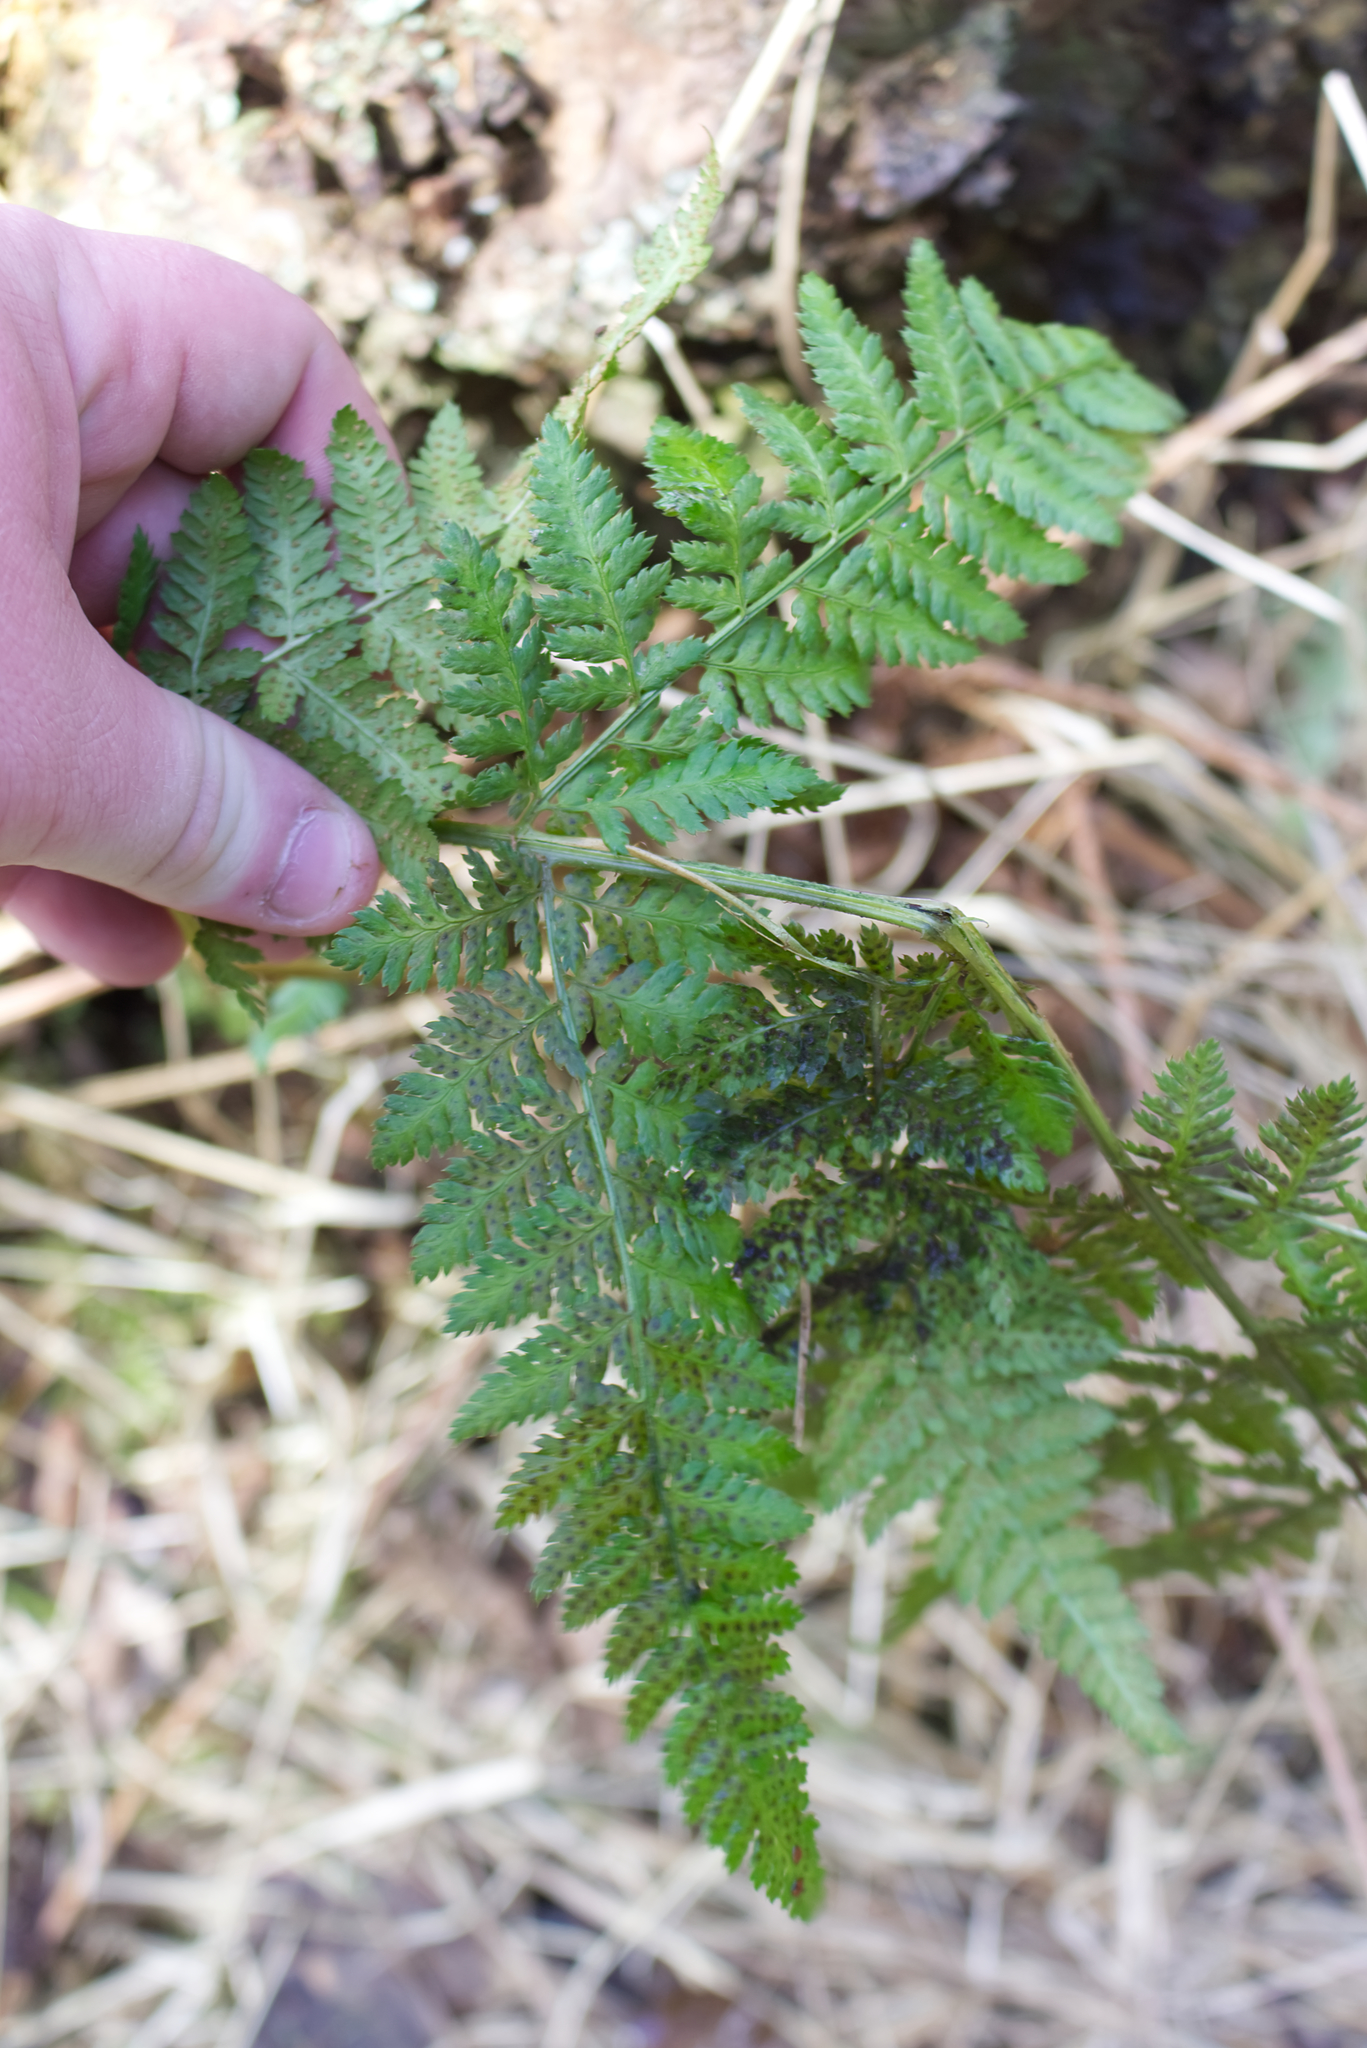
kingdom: Plantae
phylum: Tracheophyta
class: Polypodiopsida
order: Polypodiales
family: Dryopteridaceae
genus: Dryopteris
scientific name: Dryopteris dilatata
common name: Broad buckler-fern
